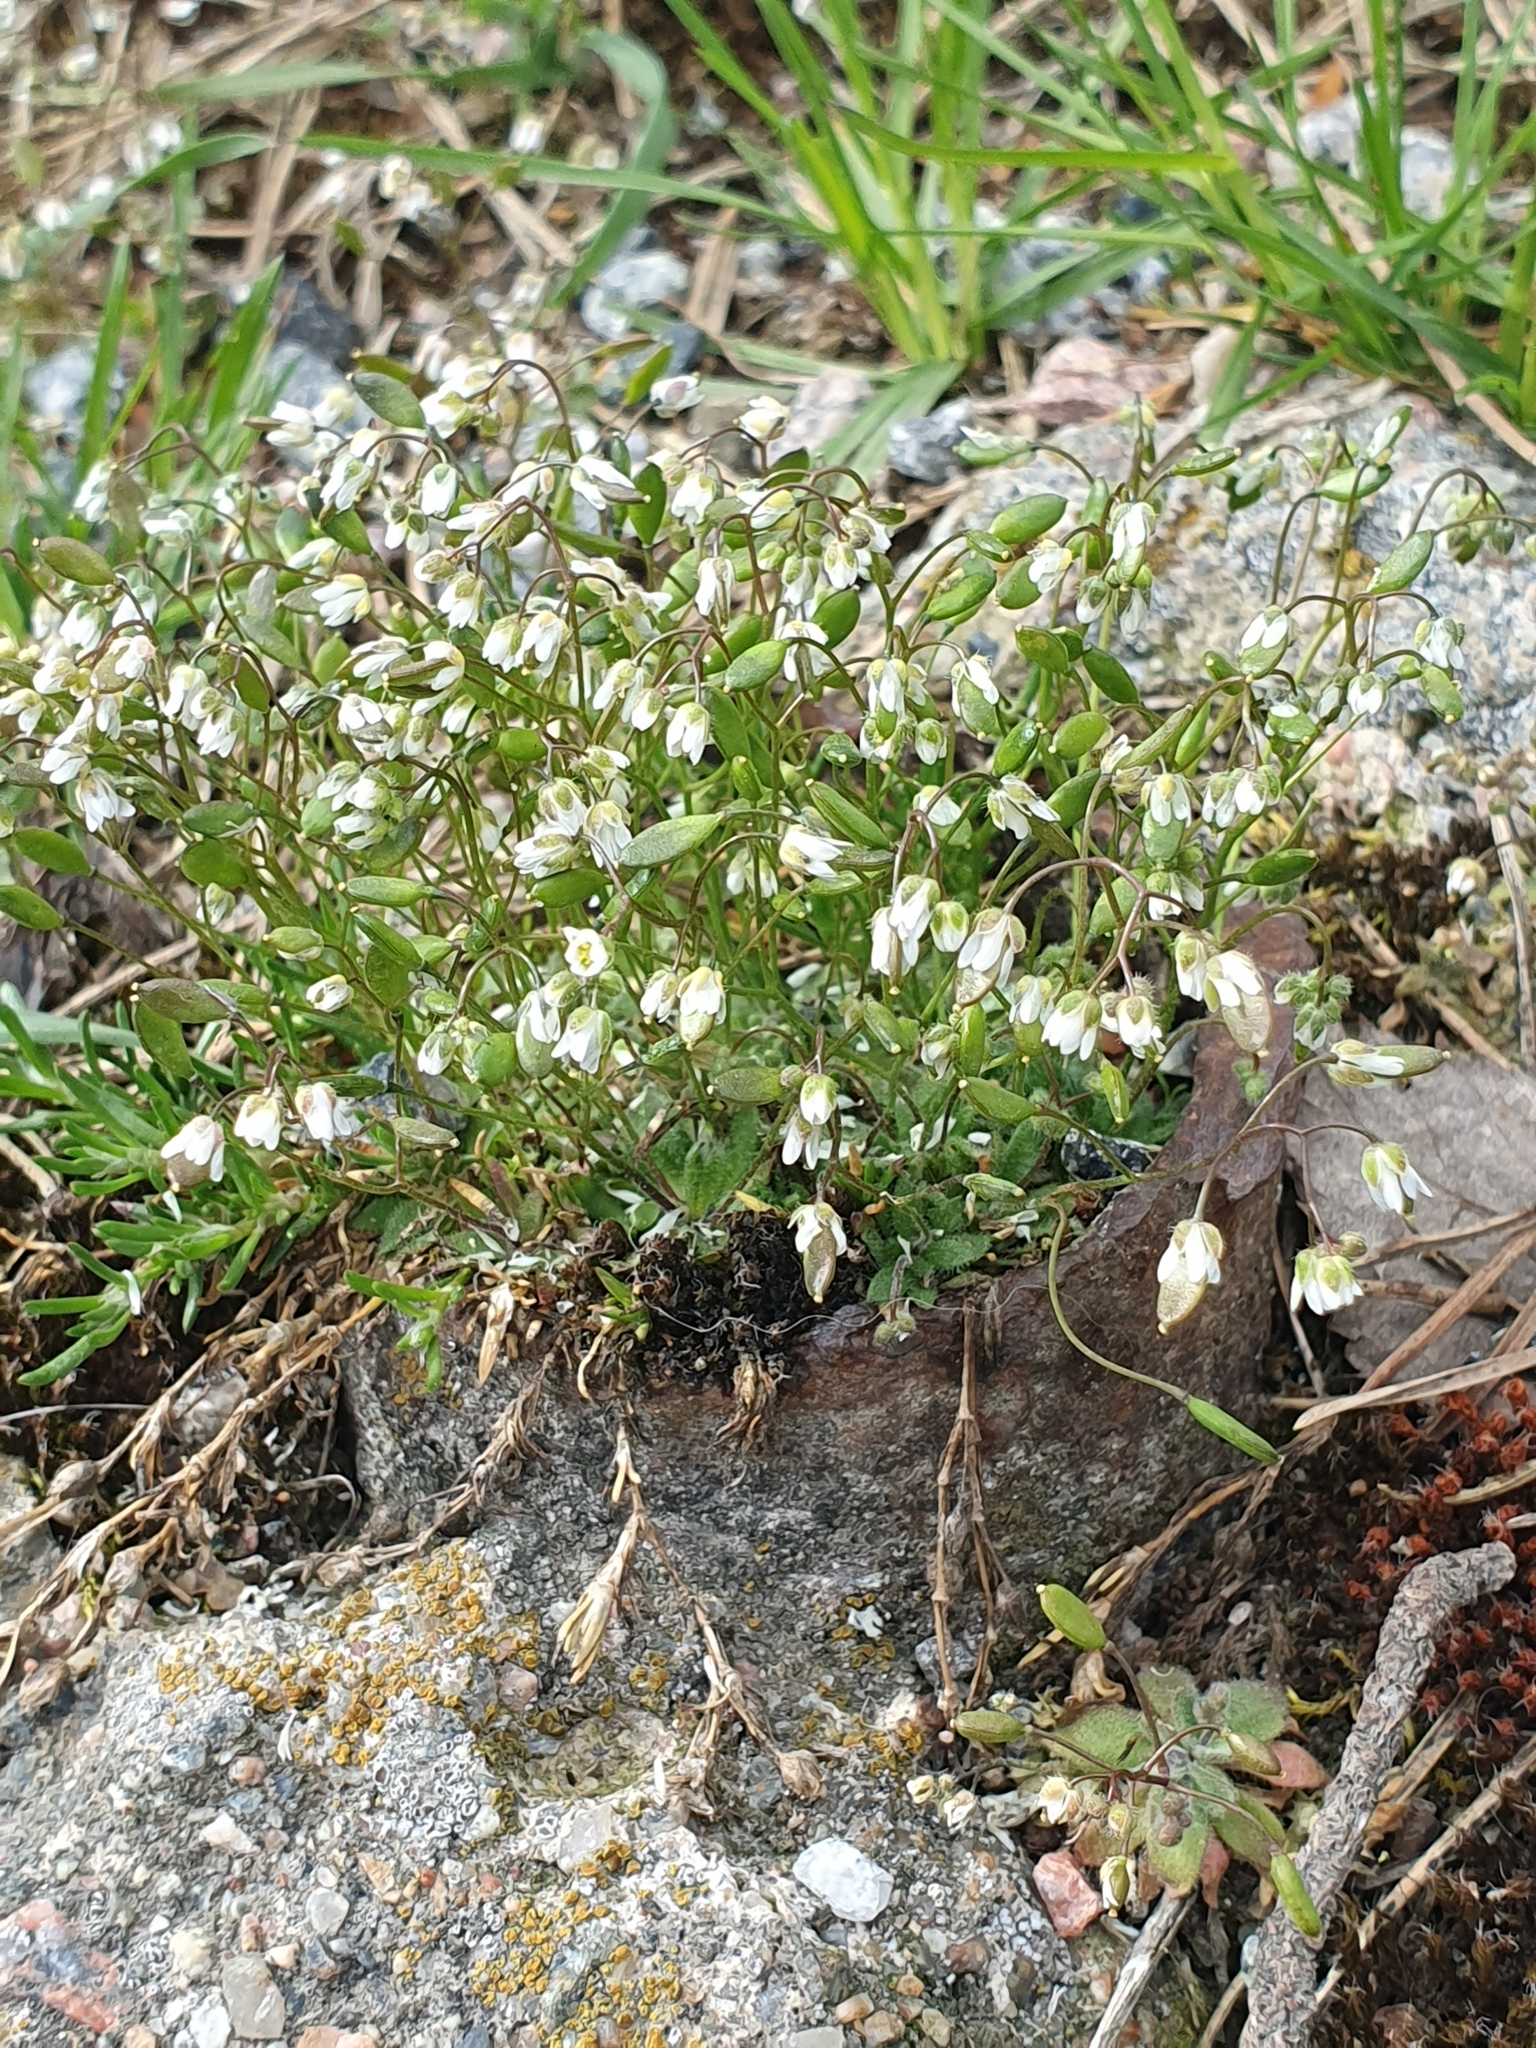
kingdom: Plantae
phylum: Tracheophyta
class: Magnoliopsida
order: Brassicales
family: Brassicaceae
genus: Draba
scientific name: Draba verna
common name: Spring draba
